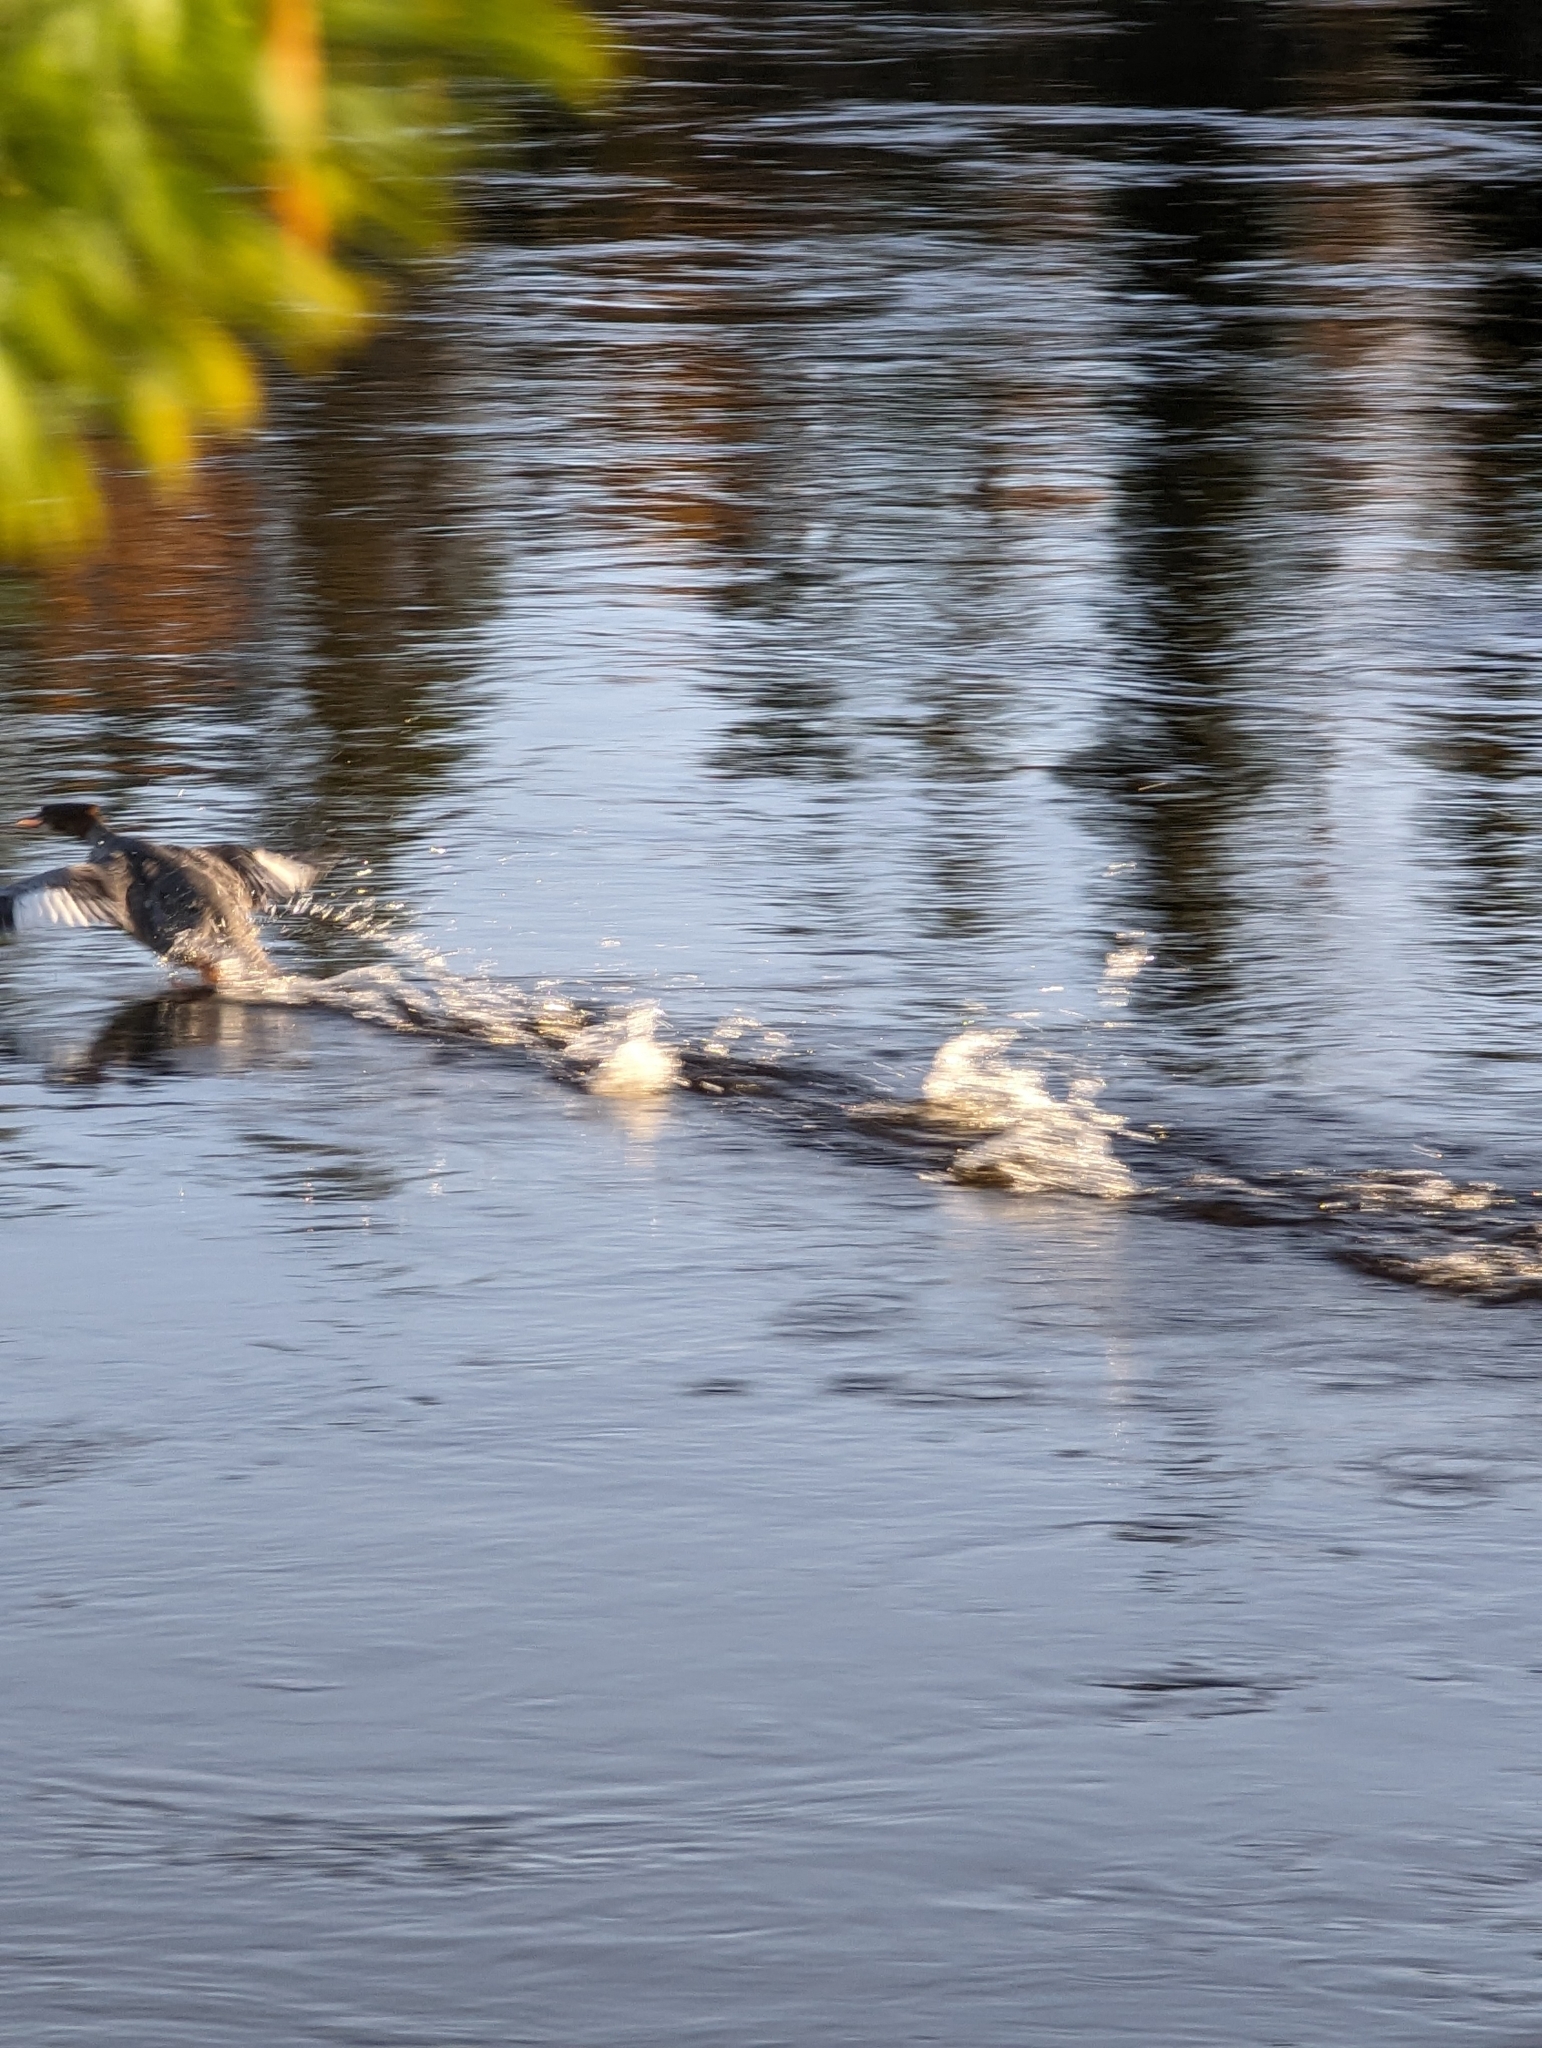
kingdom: Animalia
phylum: Chordata
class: Aves
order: Anseriformes
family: Anatidae
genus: Mergus
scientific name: Mergus merganser
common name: Common merganser
